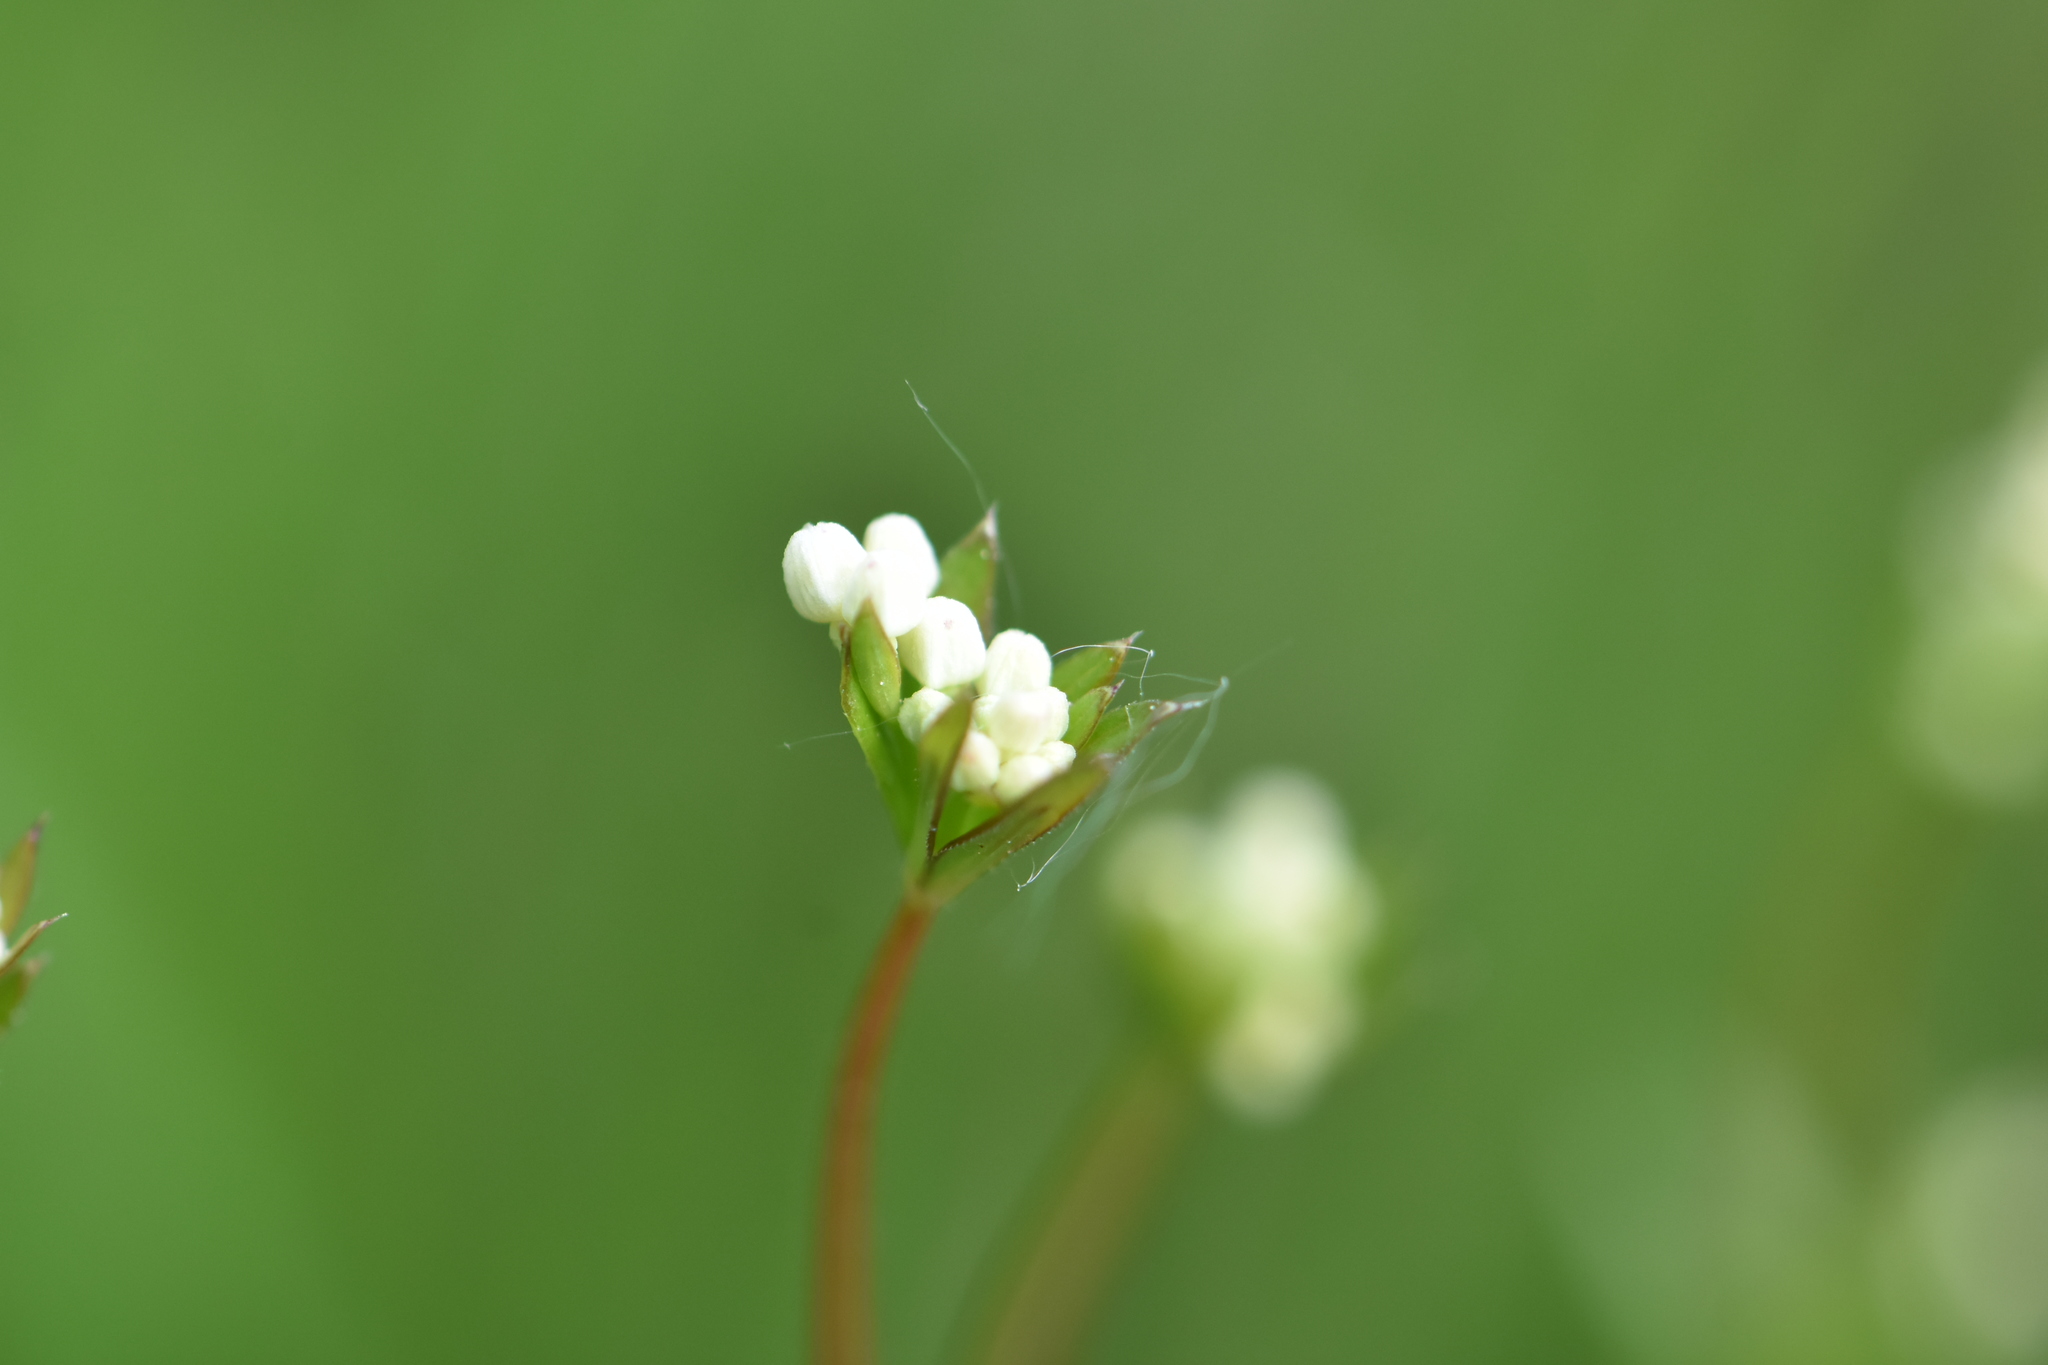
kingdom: Plantae
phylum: Tracheophyta
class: Magnoliopsida
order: Gentianales
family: Rubiaceae
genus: Galium
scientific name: Galium uliginosum
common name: Fen bedstraw
